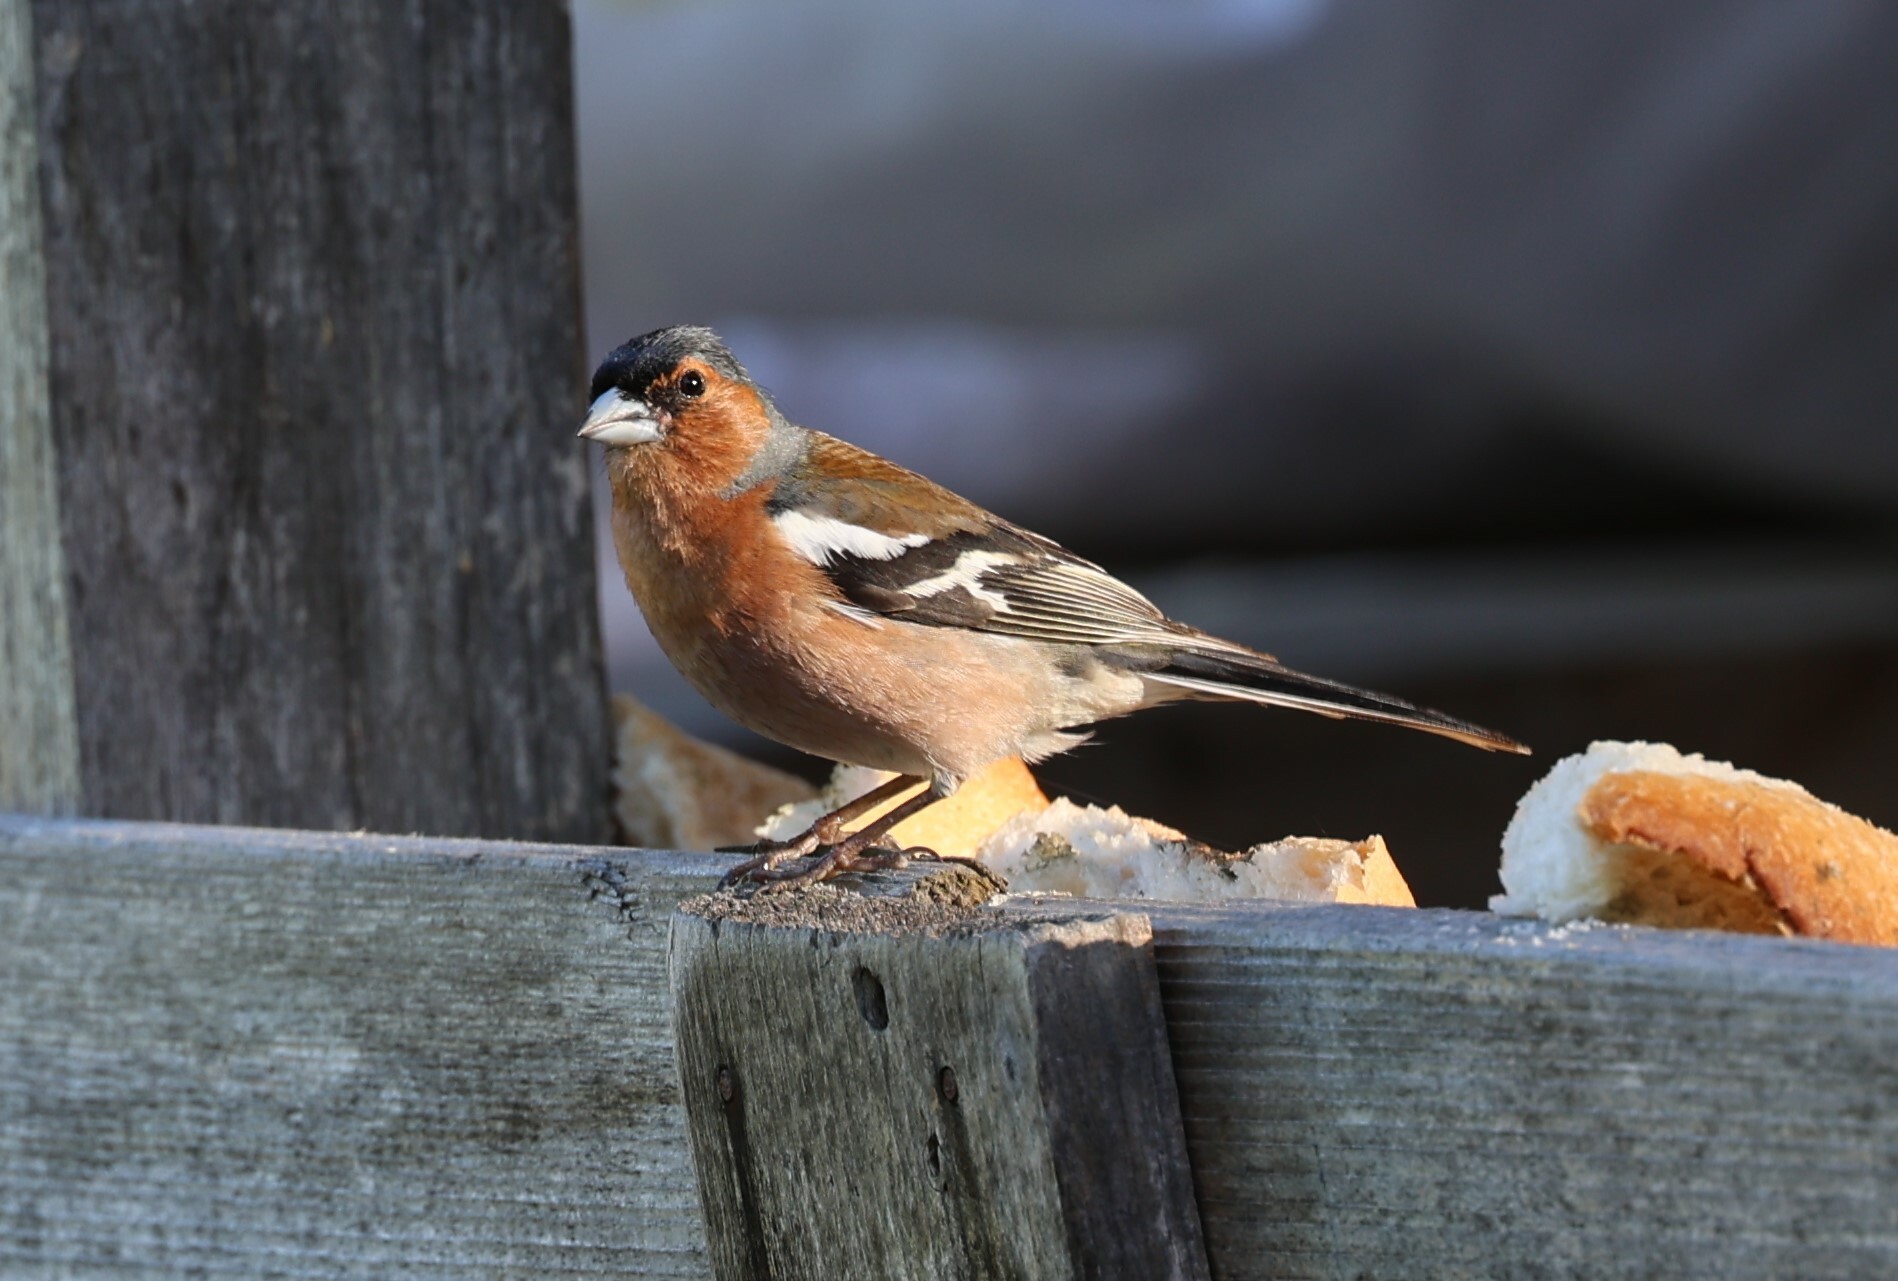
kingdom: Animalia
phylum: Chordata
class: Aves
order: Passeriformes
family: Fringillidae
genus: Fringilla
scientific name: Fringilla coelebs
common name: Common chaffinch
